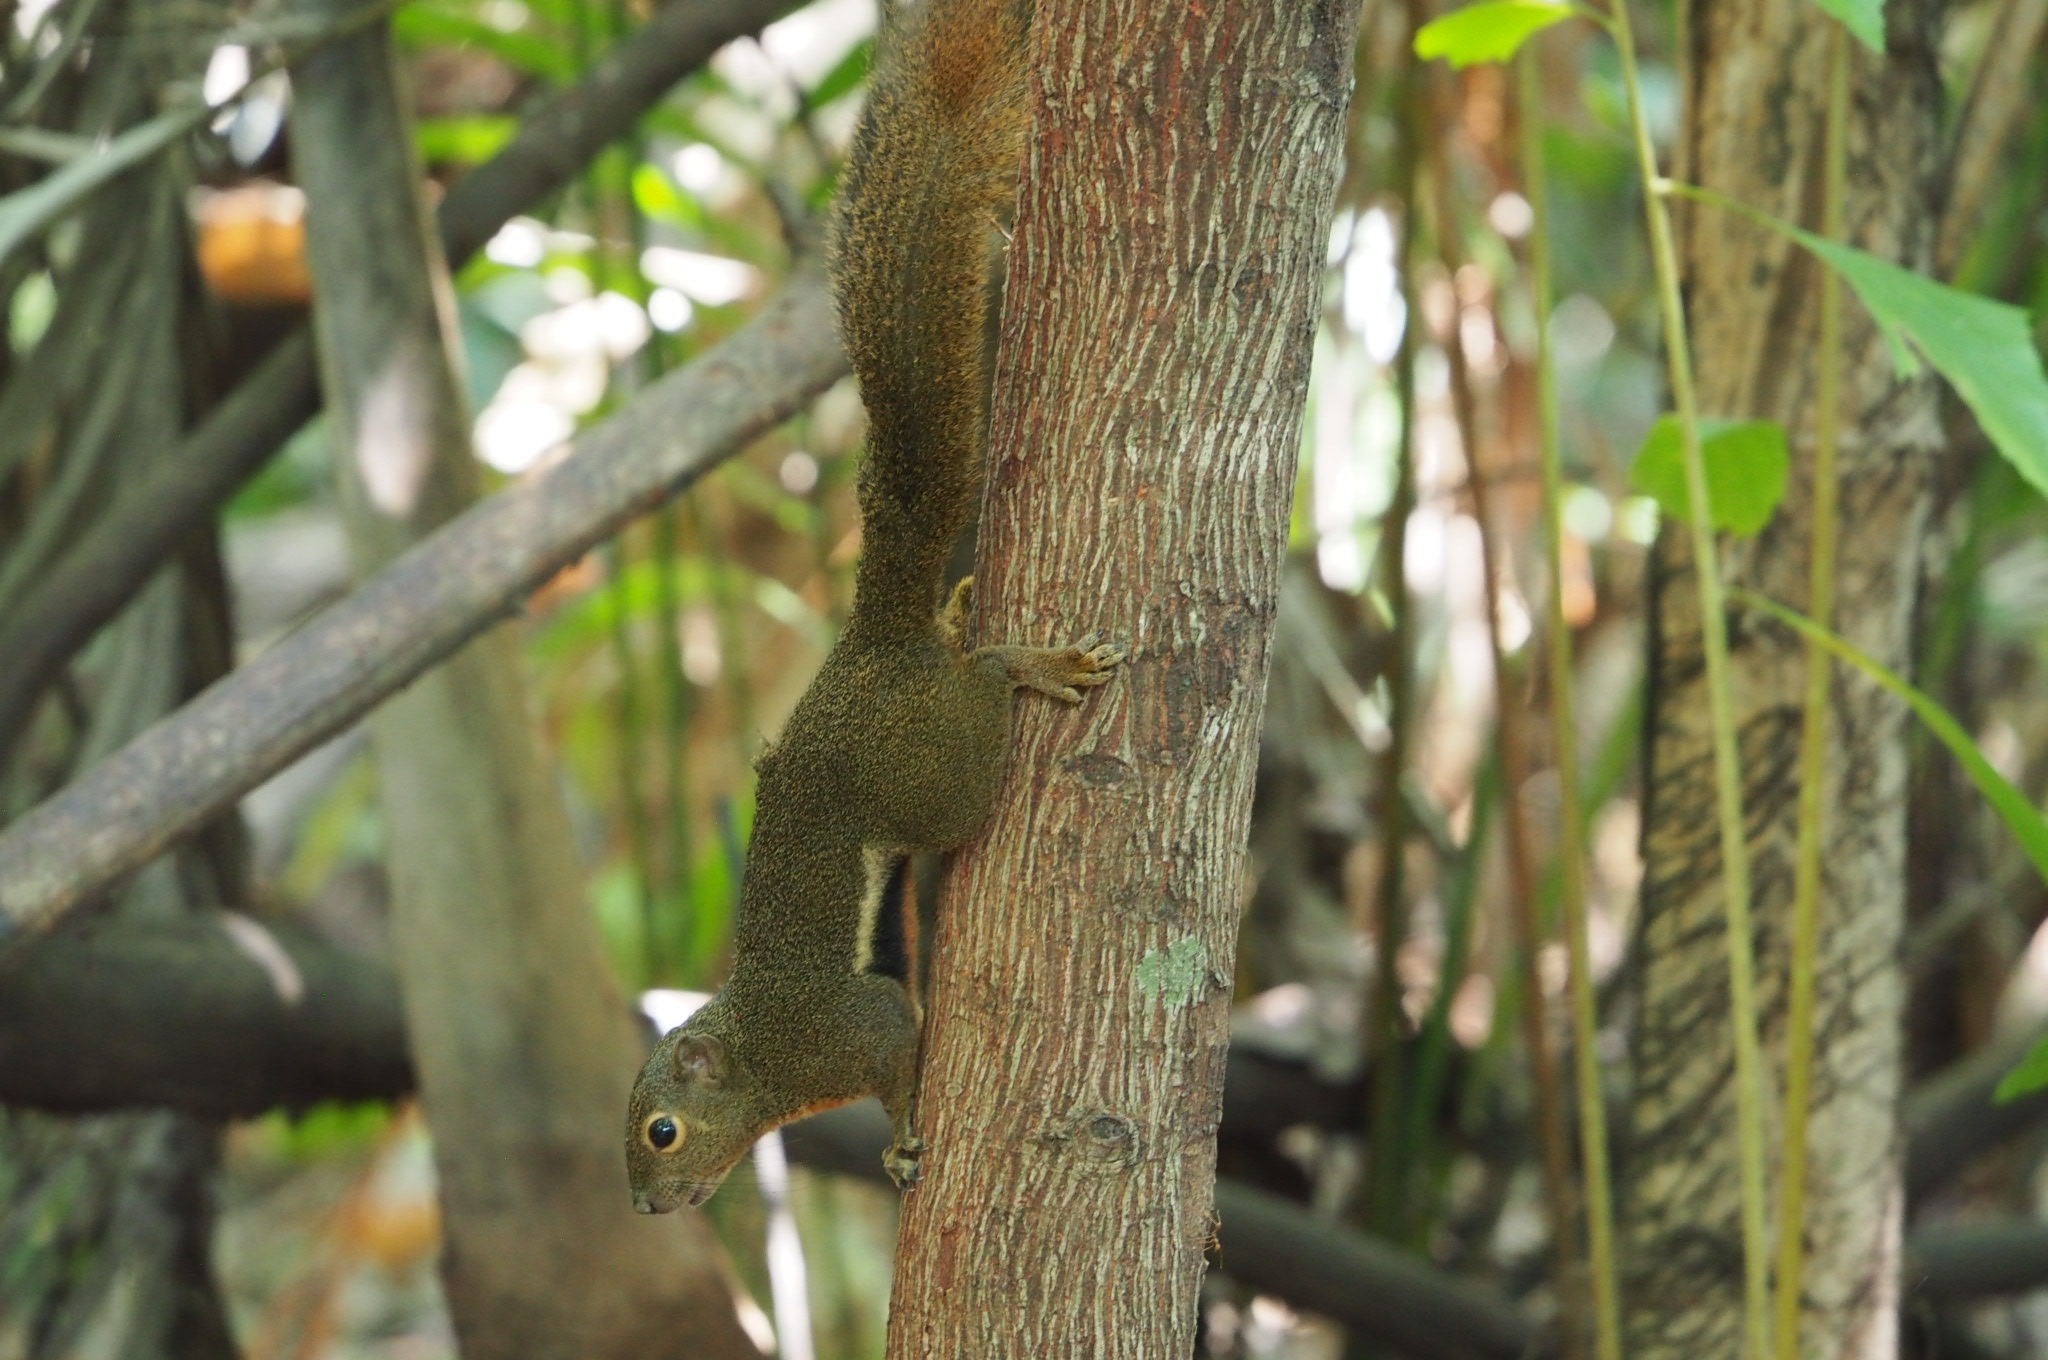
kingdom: Animalia
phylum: Chordata
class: Mammalia
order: Rodentia
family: Sciuridae
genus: Callosciurus
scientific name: Callosciurus notatus
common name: Plantain squirrel
